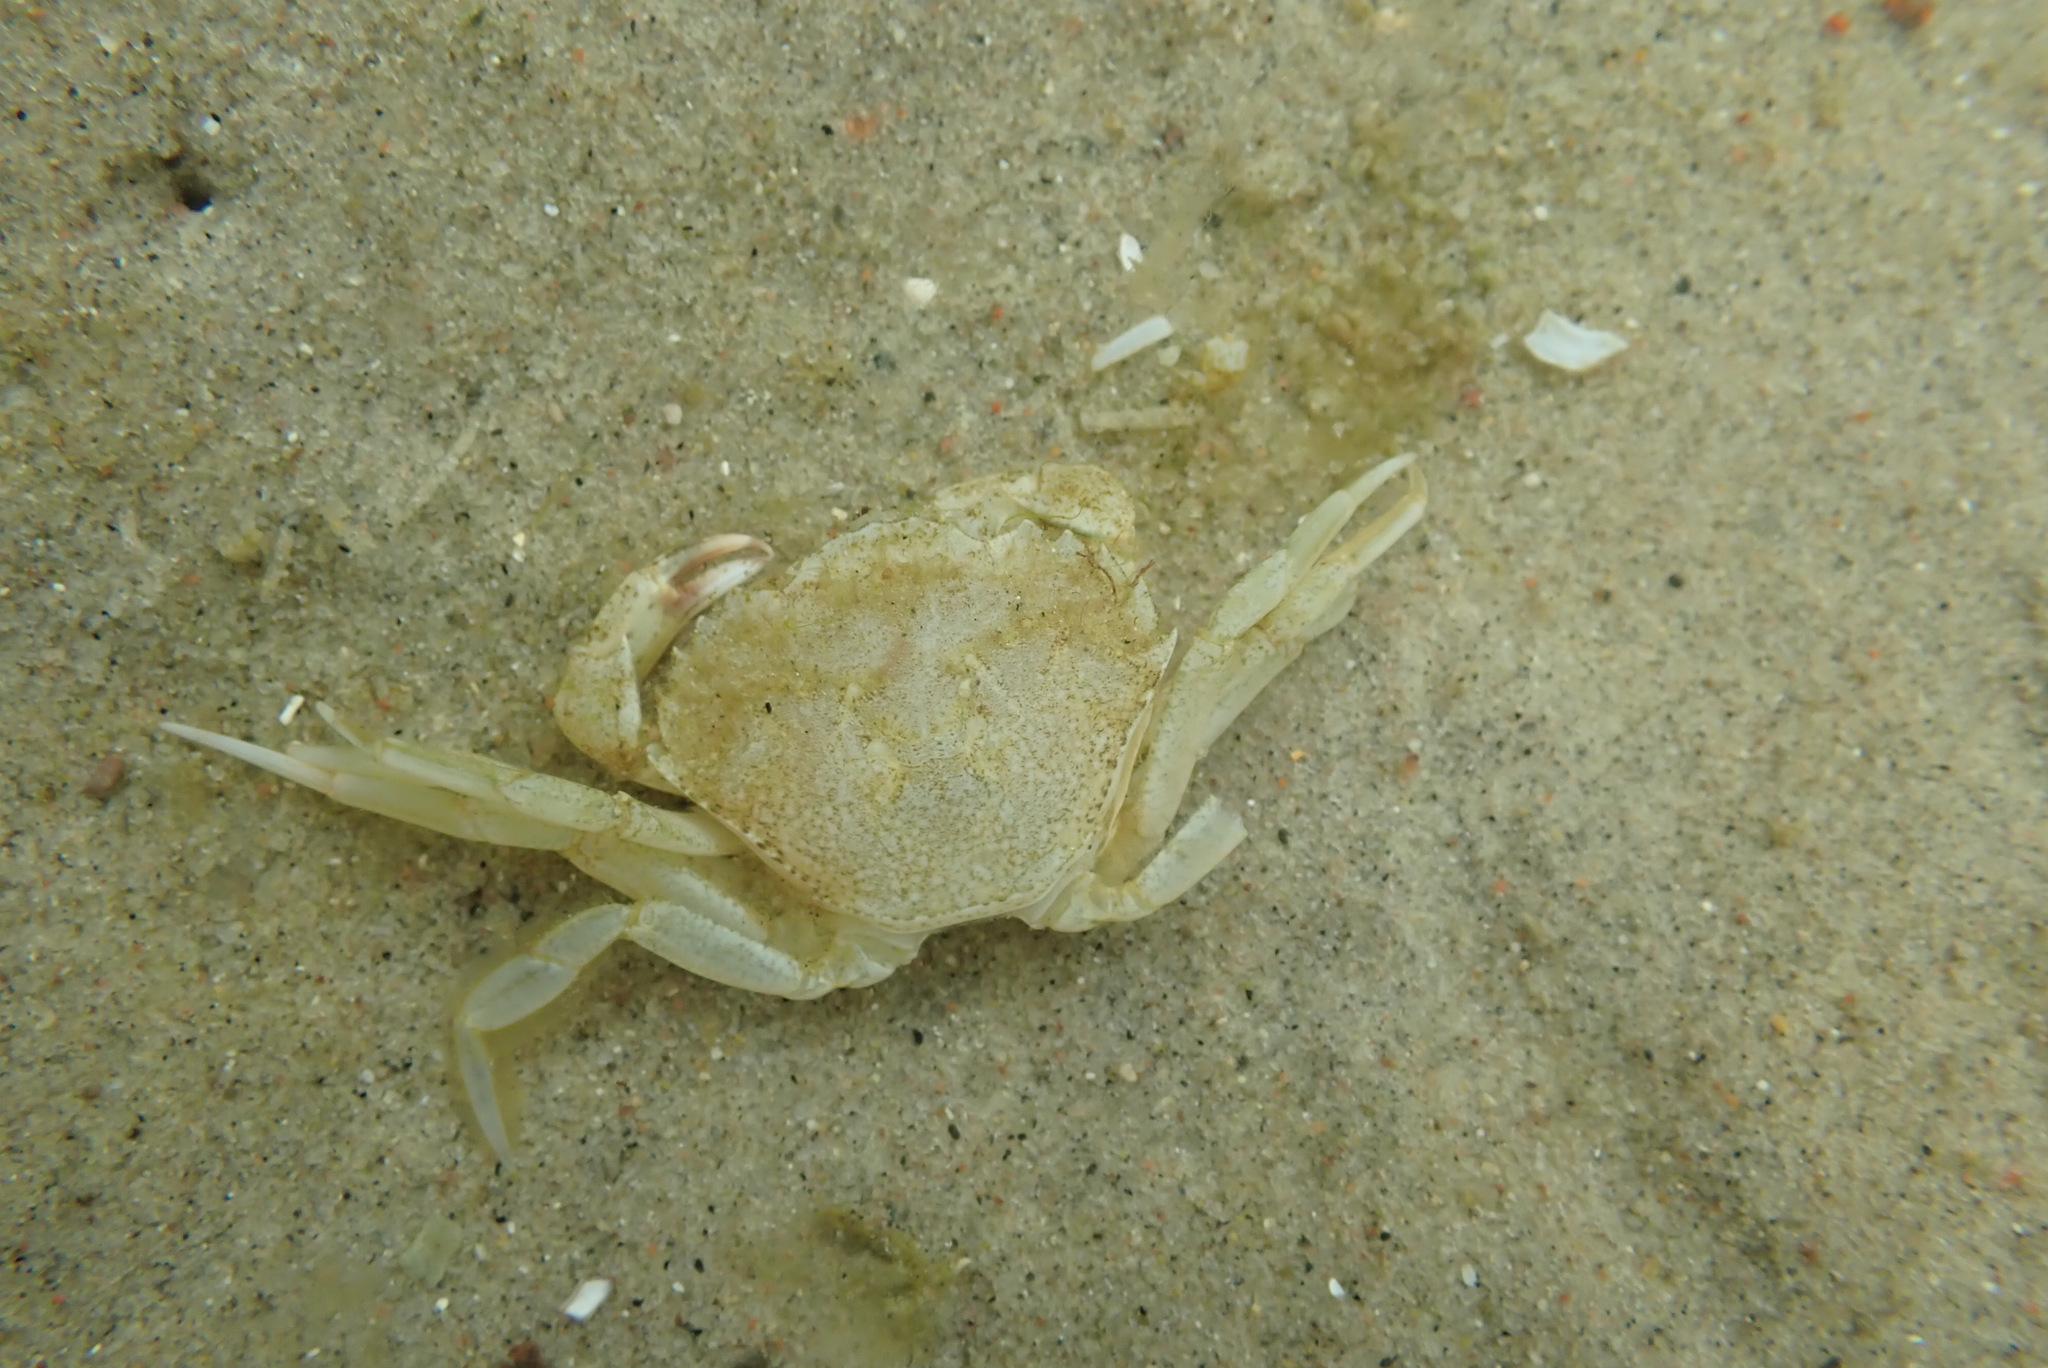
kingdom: Animalia
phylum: Arthropoda
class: Malacostraca
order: Decapoda
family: Carcinidae
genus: Carcinus
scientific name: Carcinus maenas
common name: European green crab
